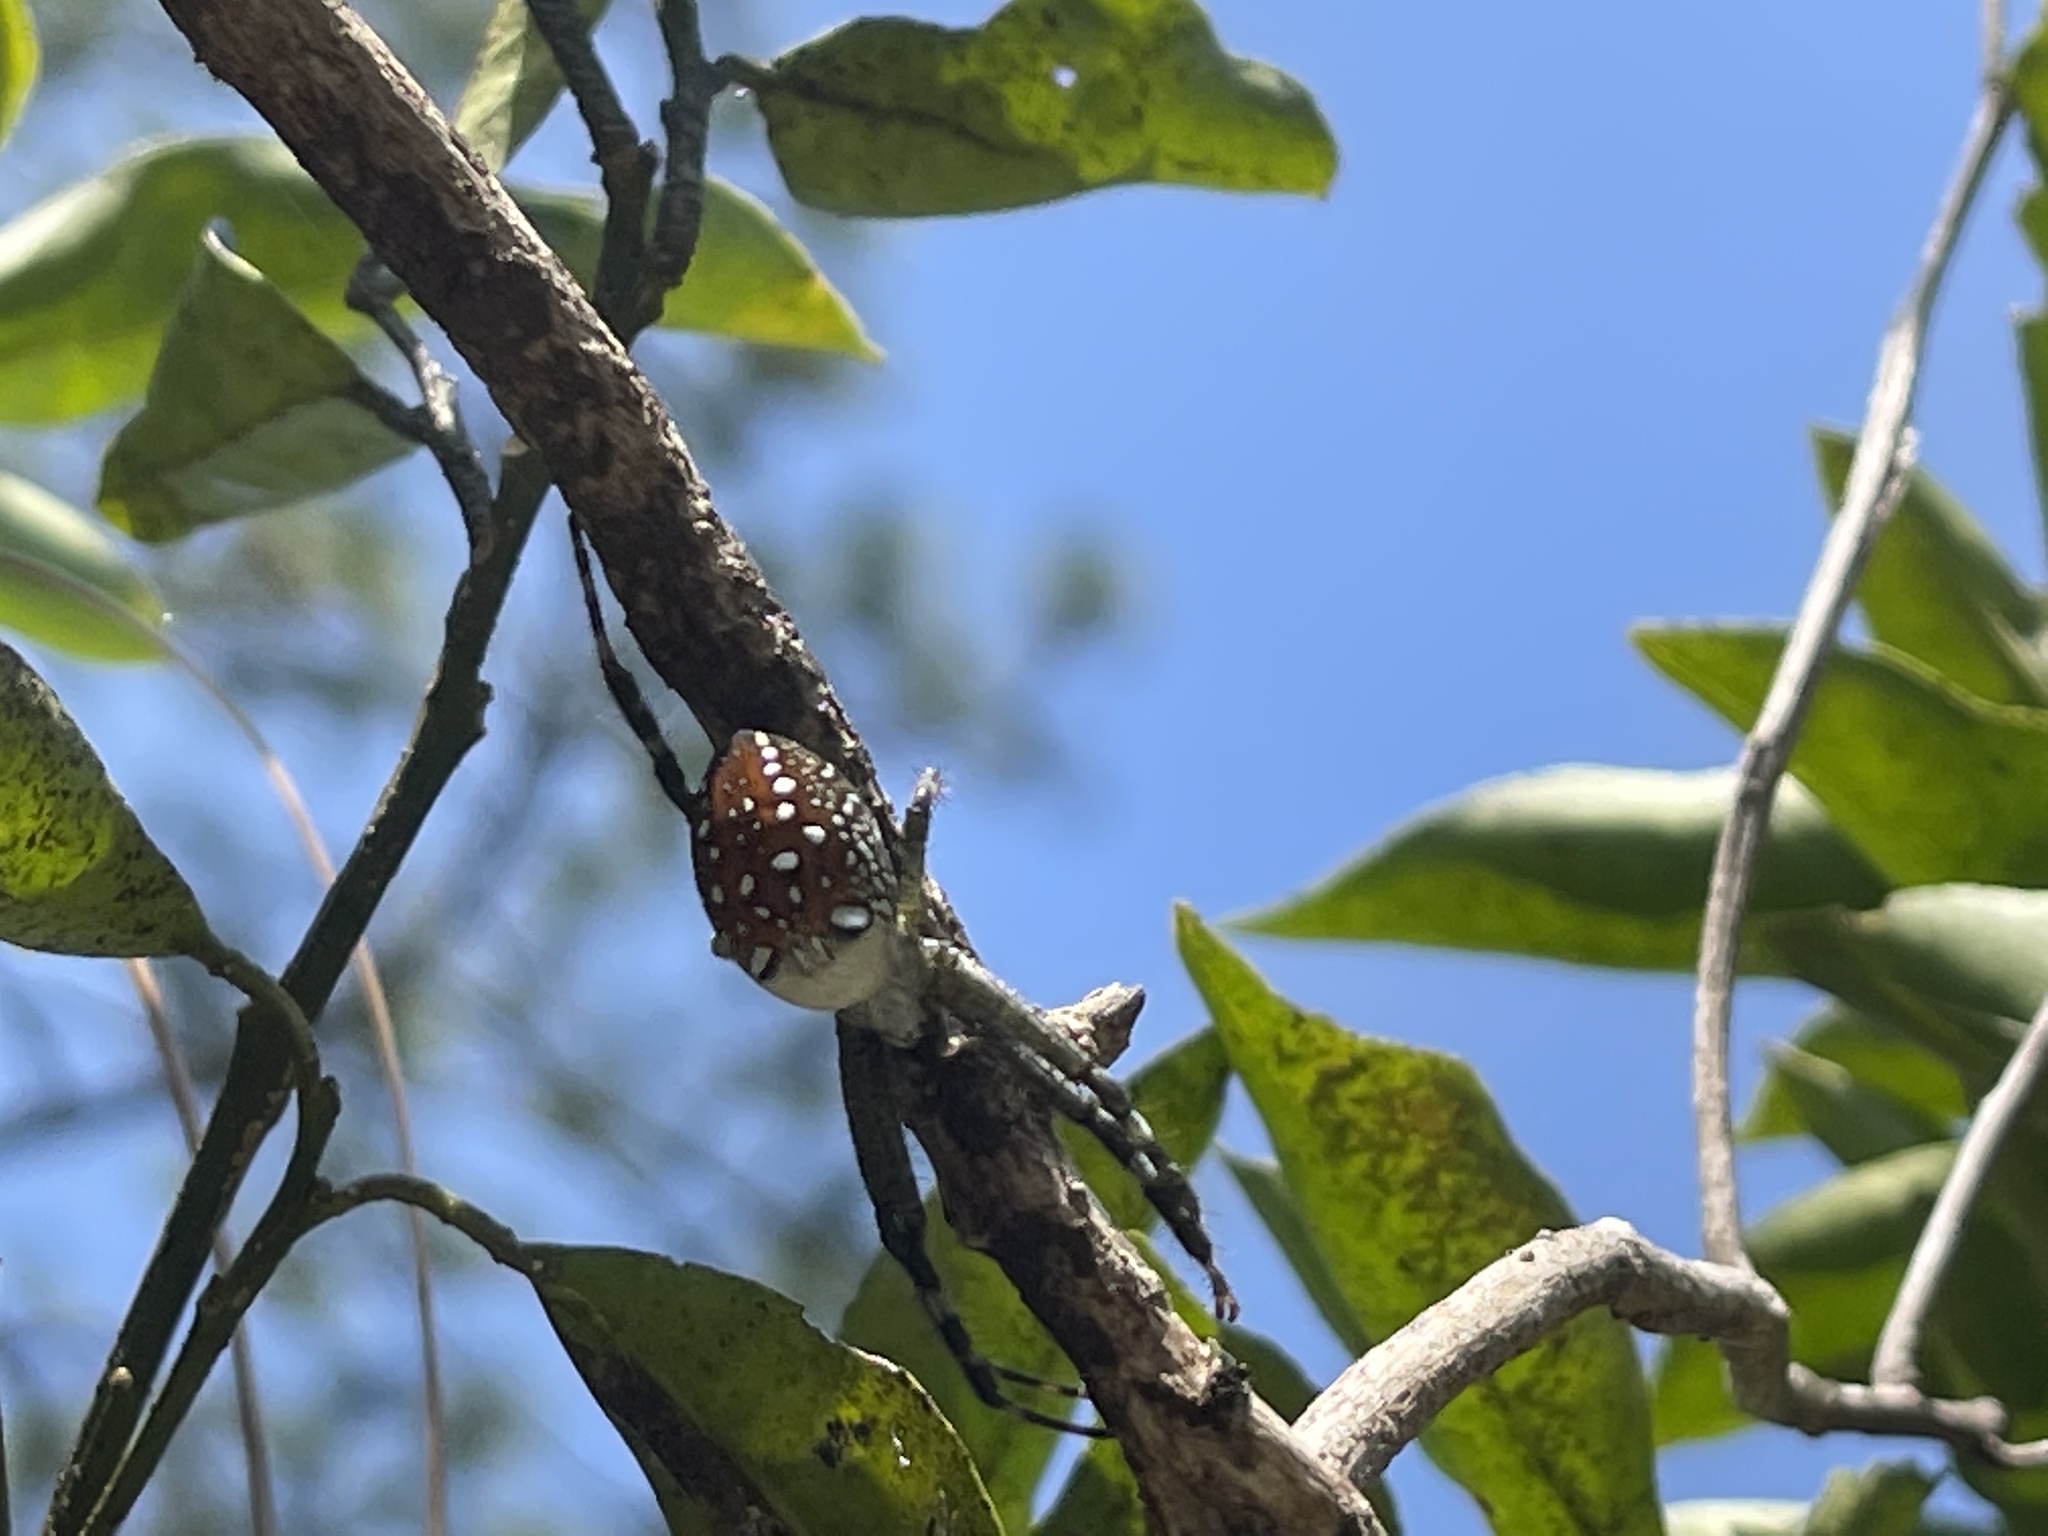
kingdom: Chromista
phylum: Ochrophyta
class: Dictyochophyceae
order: Pedinellales
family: Cyrtophoraceae
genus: Cyrtophora
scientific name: Cyrtophora moluccensis
